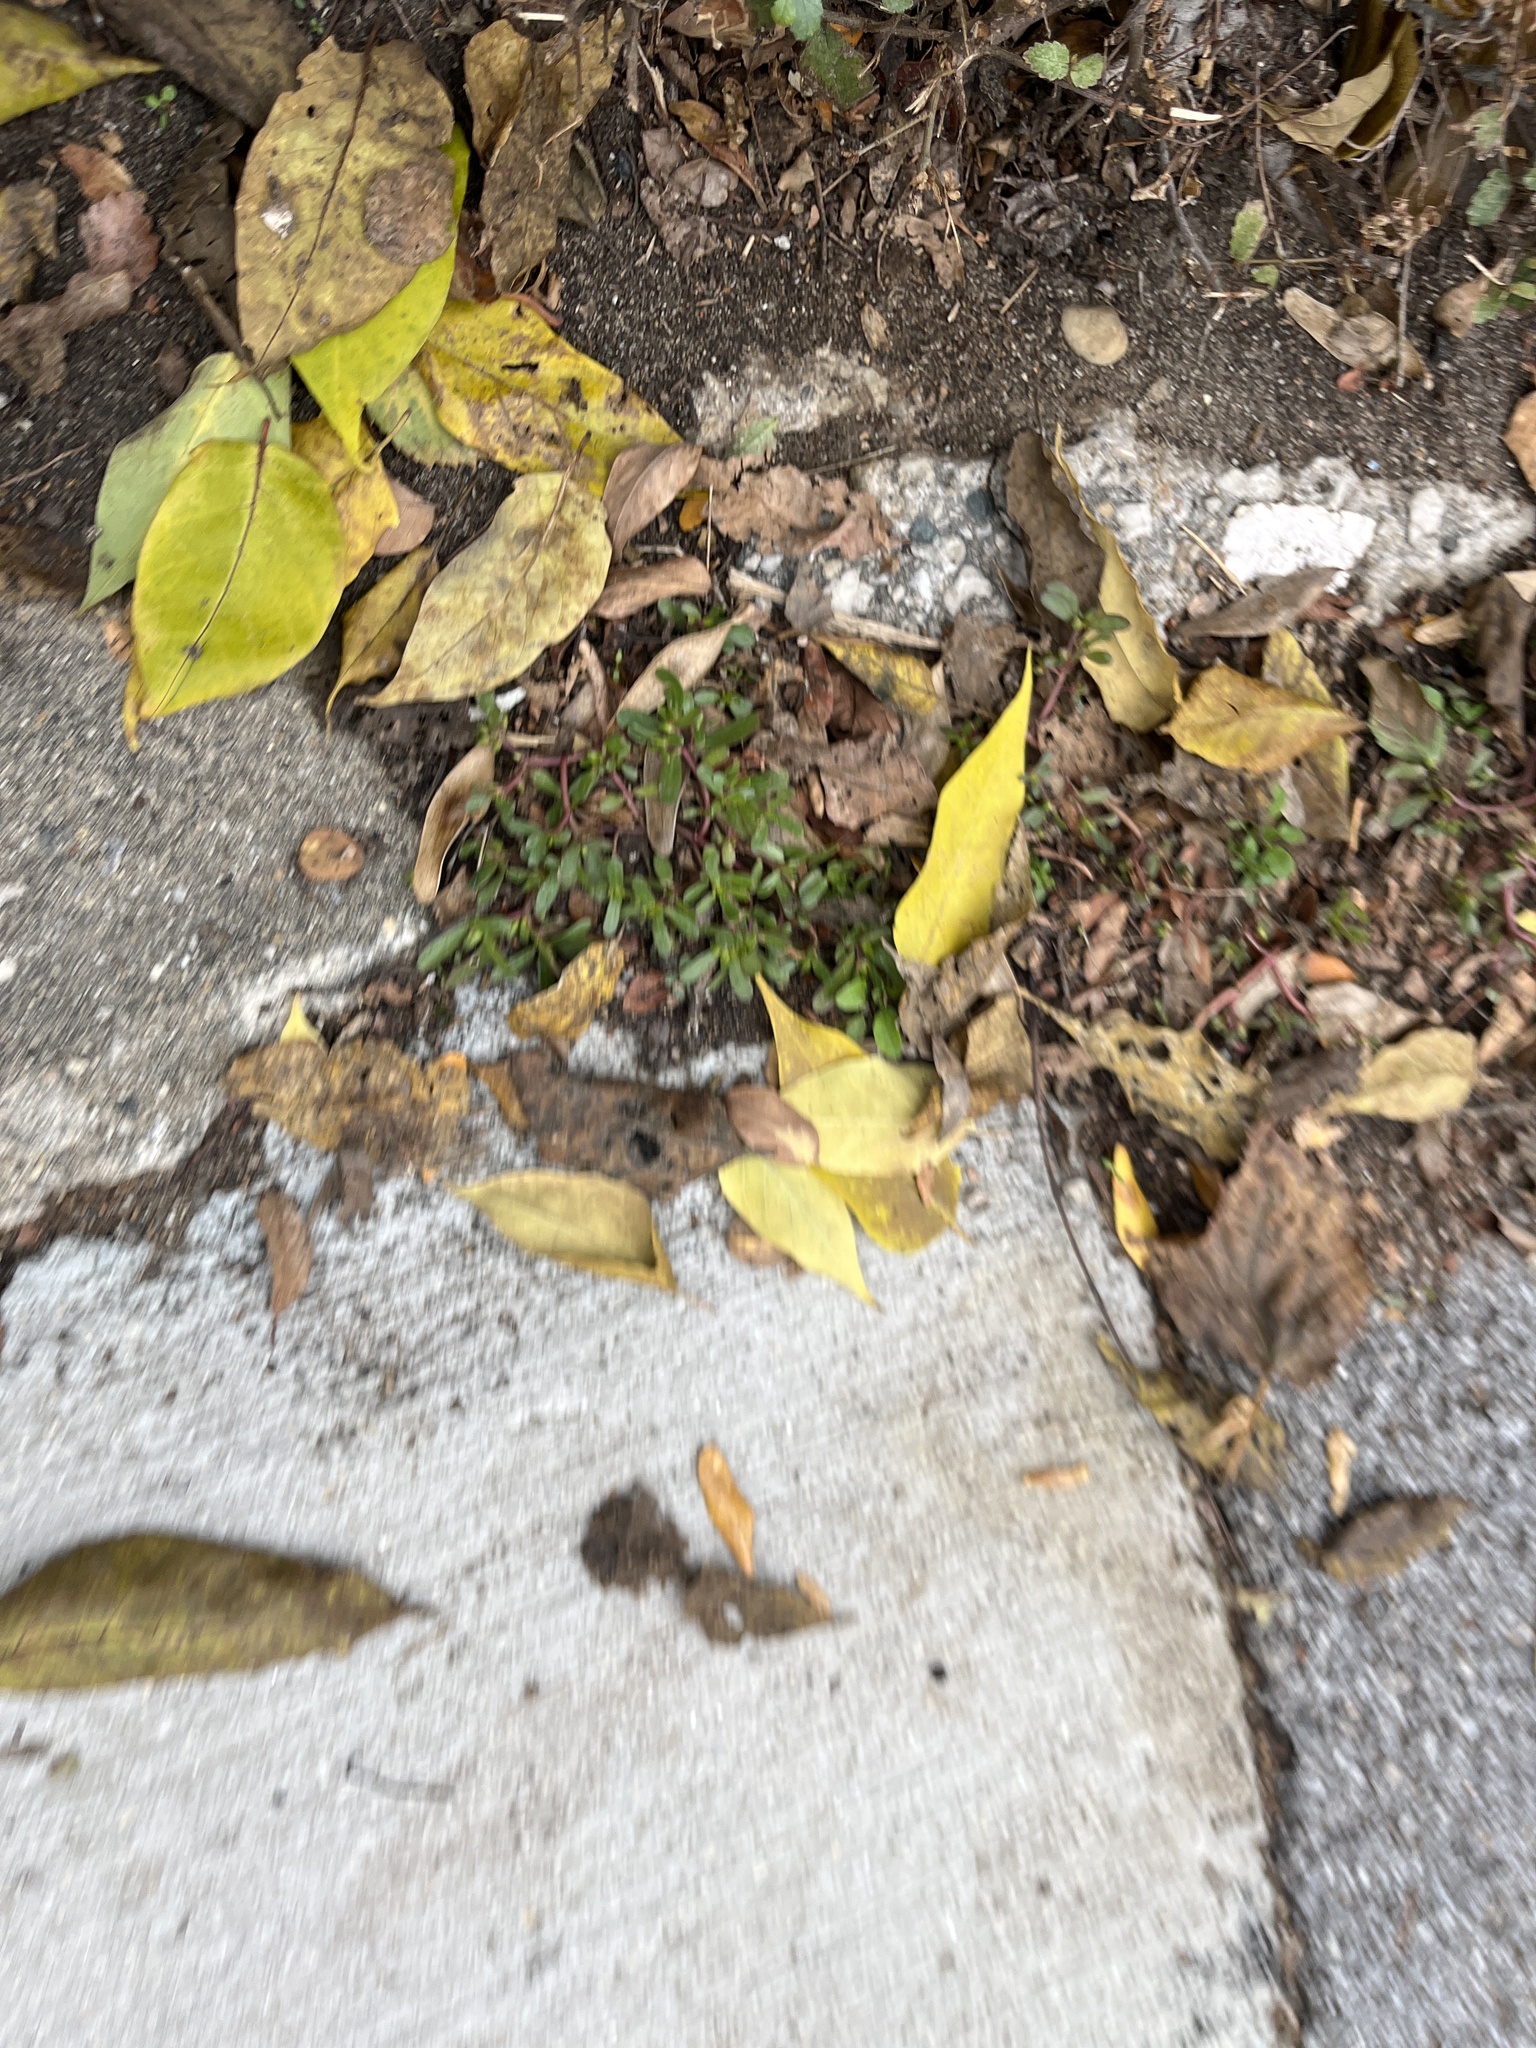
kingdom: Plantae
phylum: Tracheophyta
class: Magnoliopsida
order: Caryophyllales
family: Portulacaceae
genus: Portulaca
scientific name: Portulaca oleracea
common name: Common purslane
